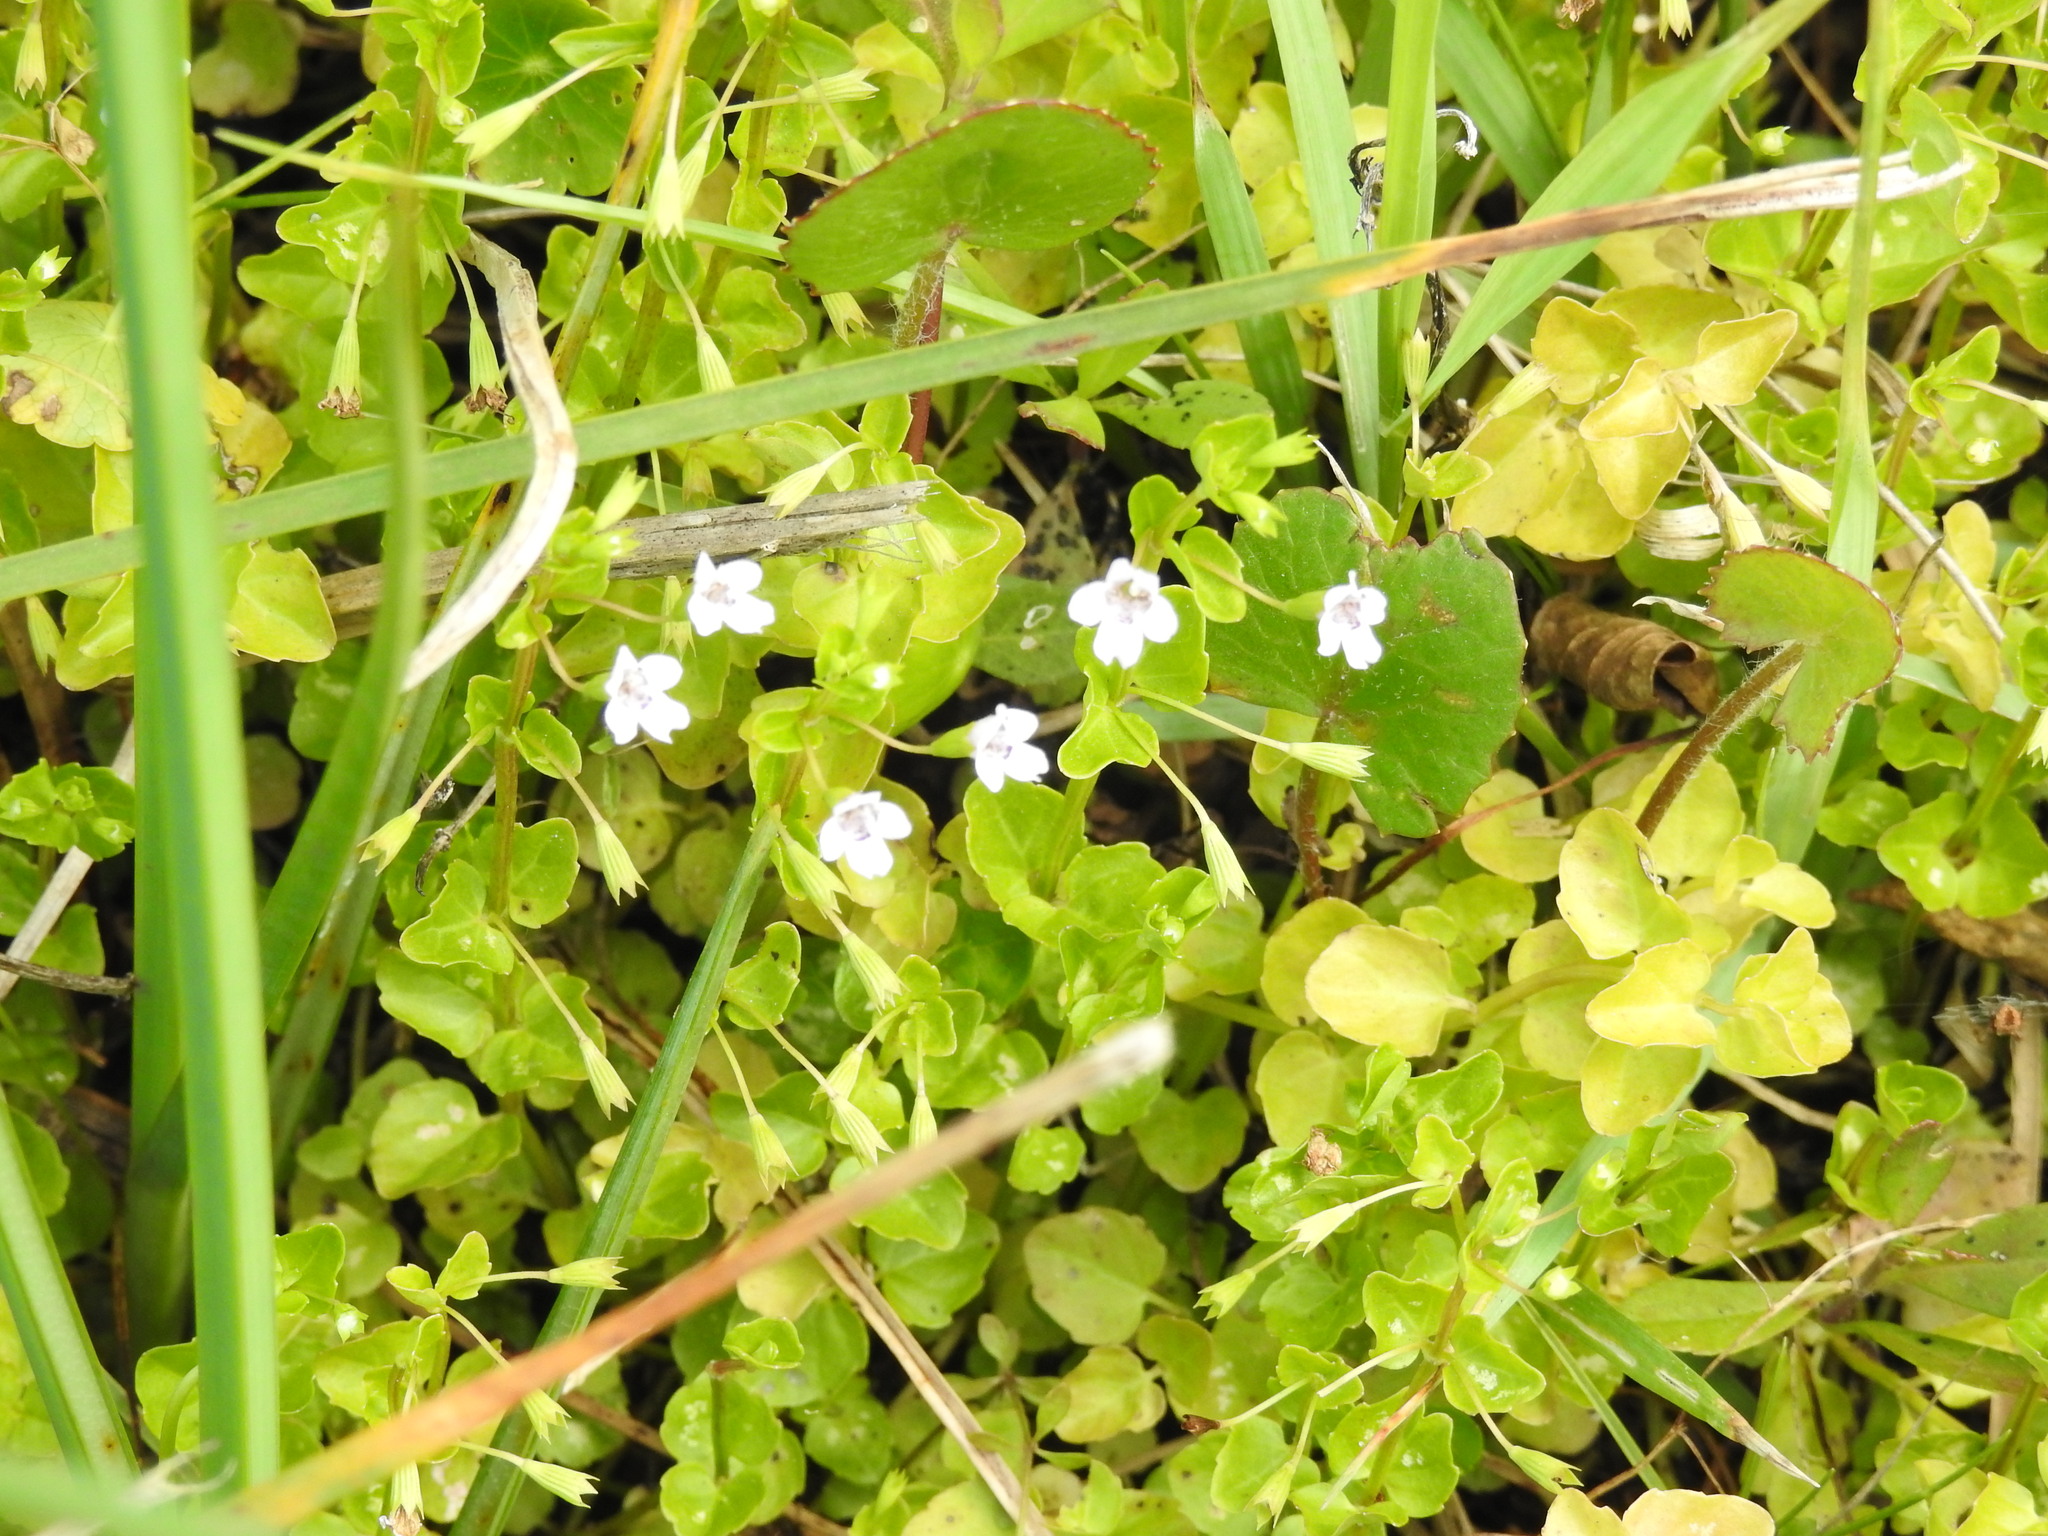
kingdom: Plantae
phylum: Tracheophyta
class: Magnoliopsida
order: Lamiales
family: Lamiaceae
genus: Clinopodium
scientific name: Clinopodium brownei
